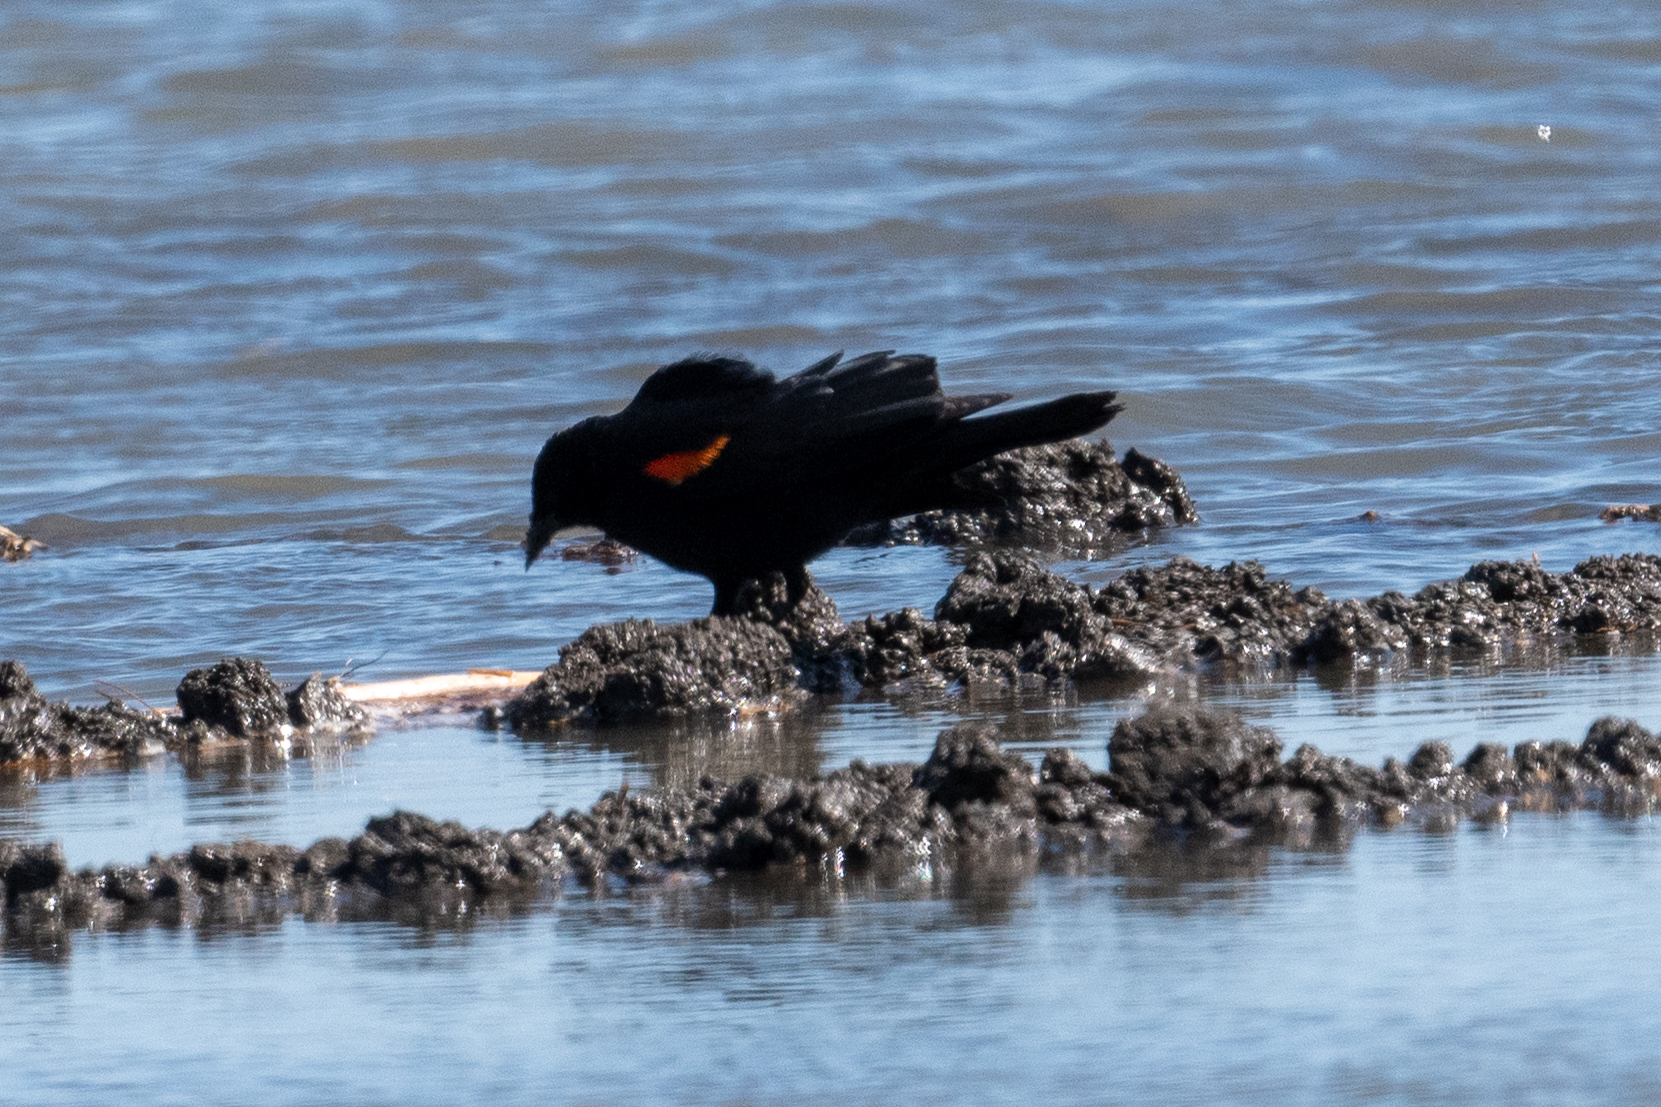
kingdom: Animalia
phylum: Chordata
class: Aves
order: Passeriformes
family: Icteridae
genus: Agelaius
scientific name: Agelaius phoeniceus
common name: Red-winged blackbird
